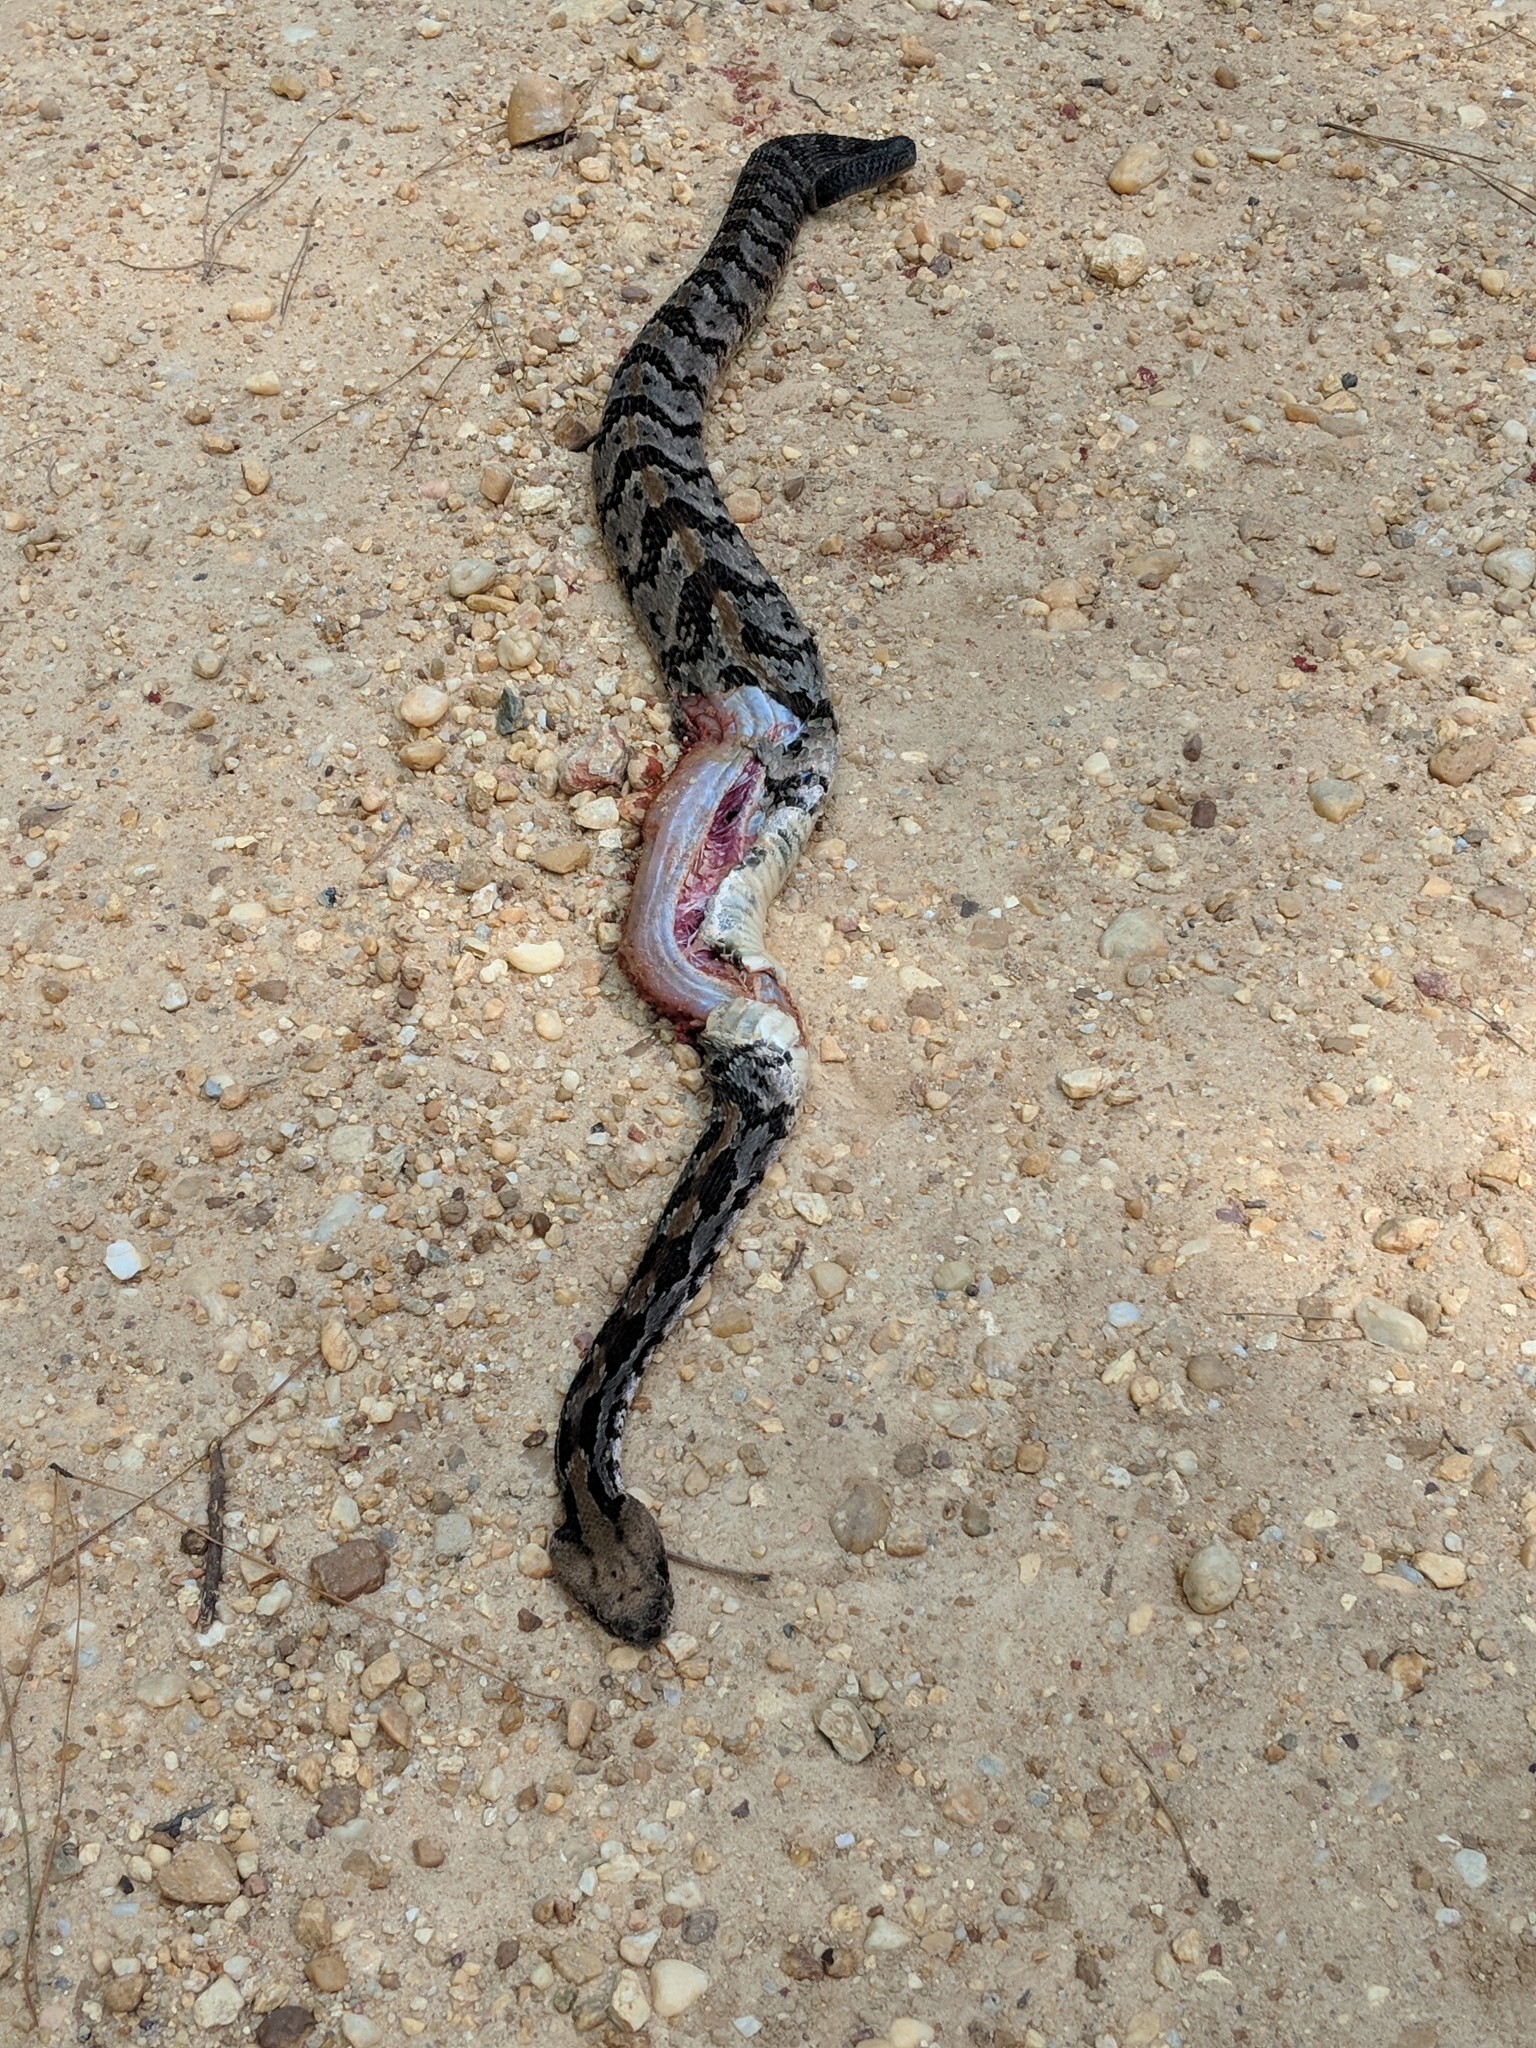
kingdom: Animalia
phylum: Chordata
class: Squamata
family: Viperidae
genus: Crotalus
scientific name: Crotalus horridus
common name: Timber rattlesnake
